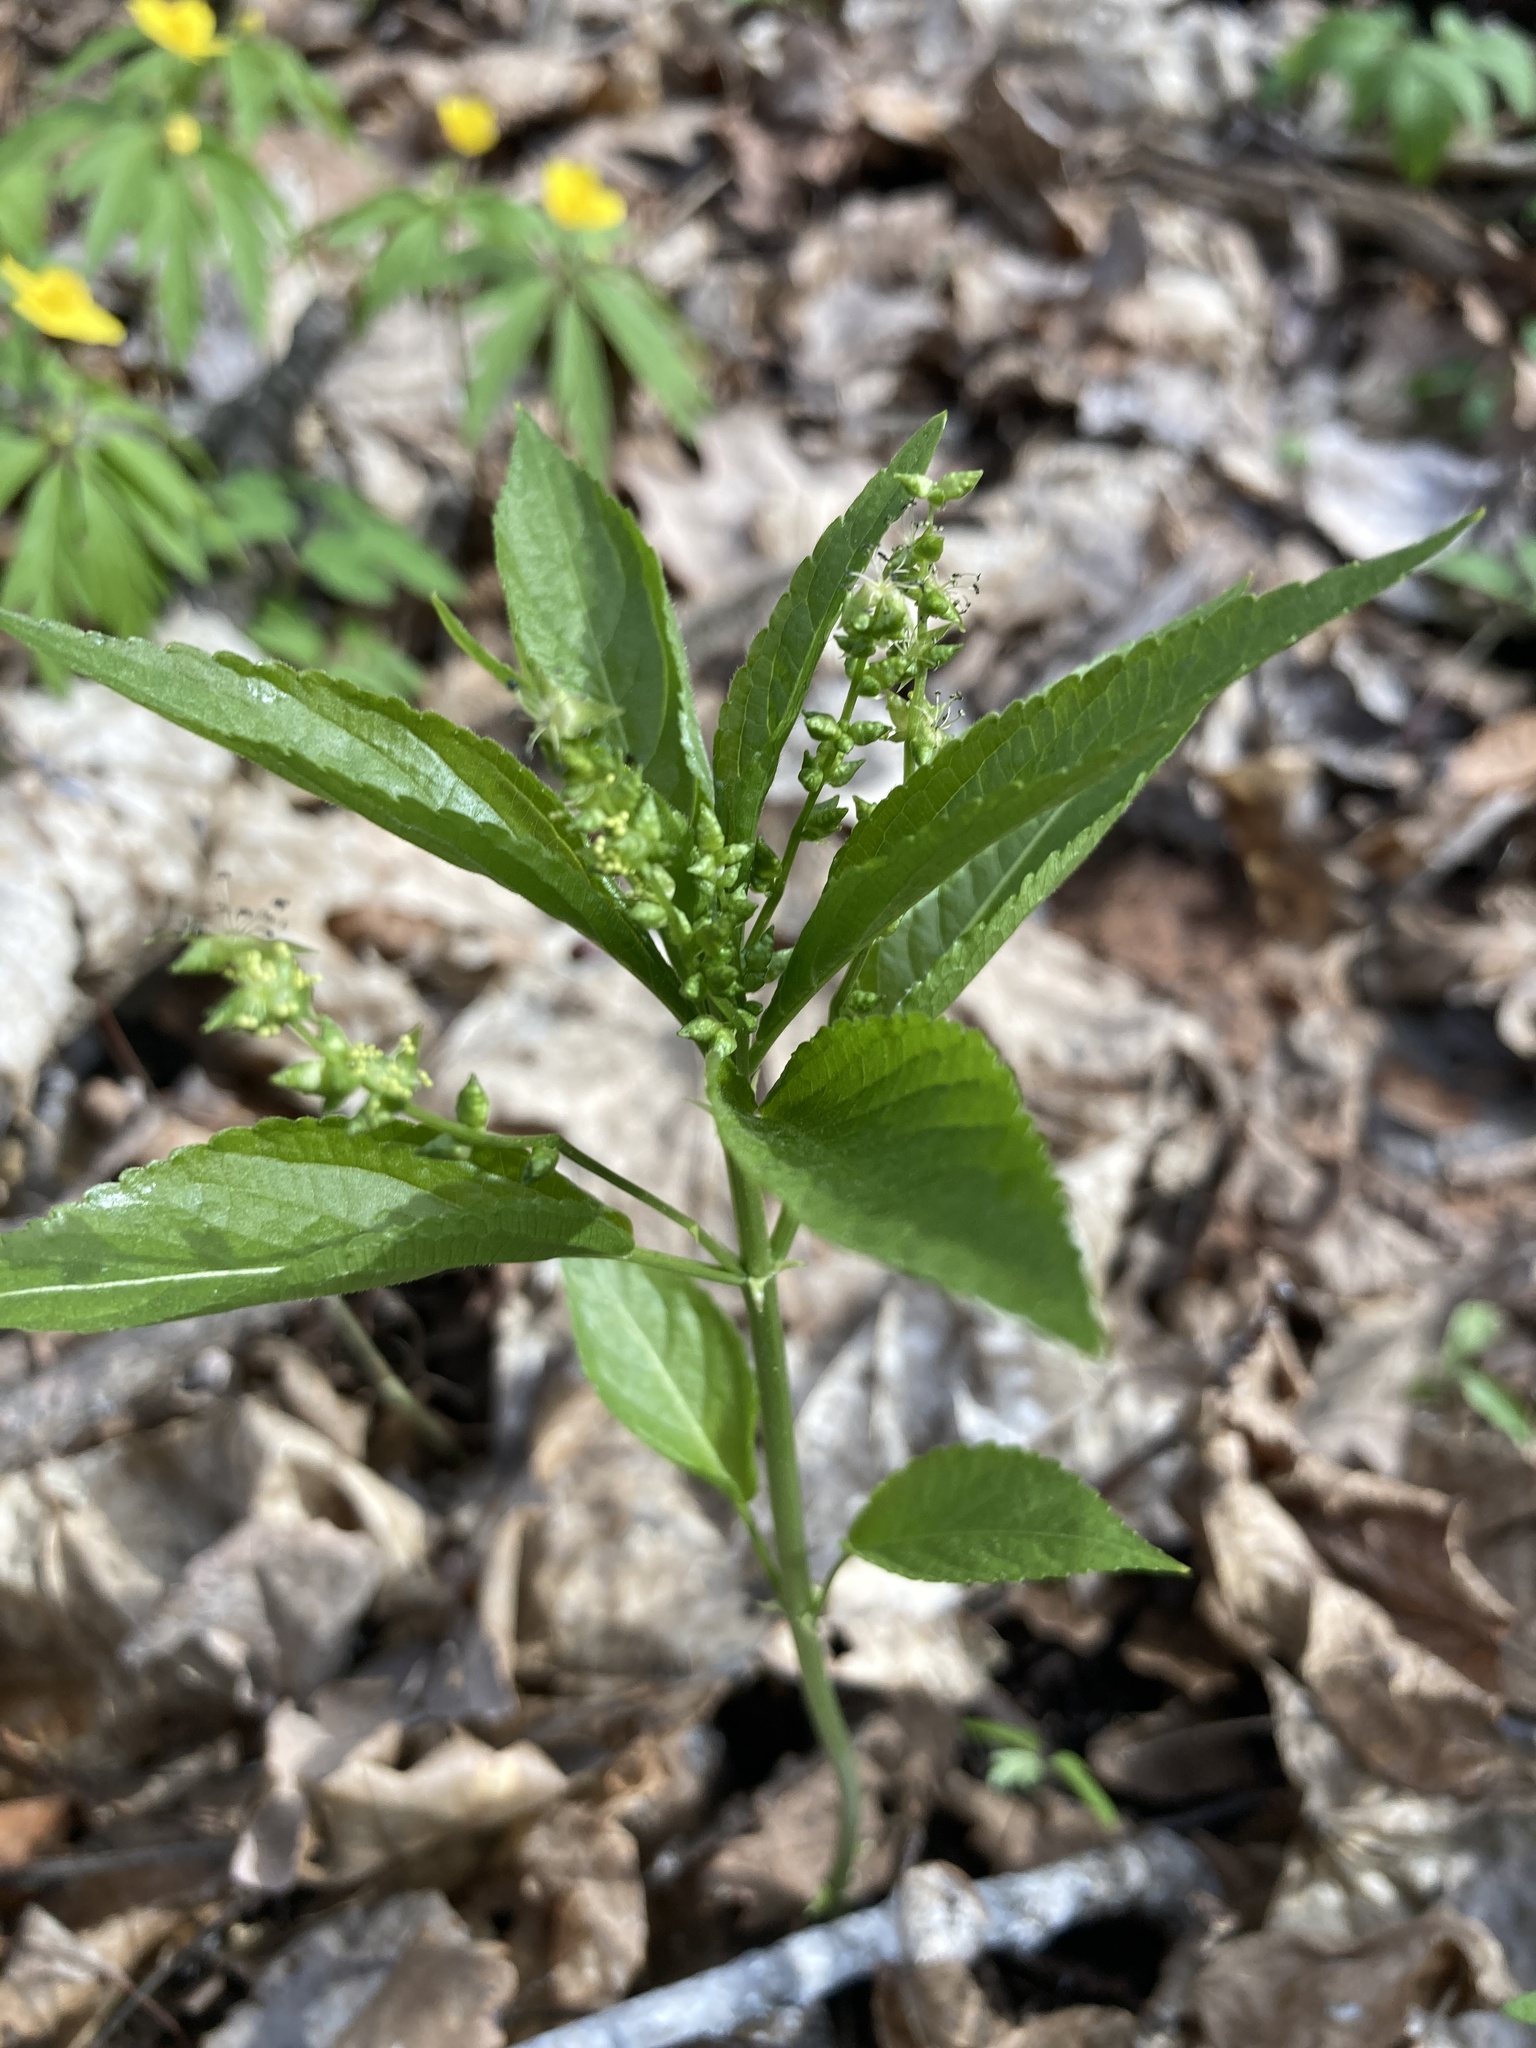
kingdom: Plantae
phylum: Tracheophyta
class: Magnoliopsida
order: Malpighiales
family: Euphorbiaceae
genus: Mercurialis
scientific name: Mercurialis perennis
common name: Dog mercury
